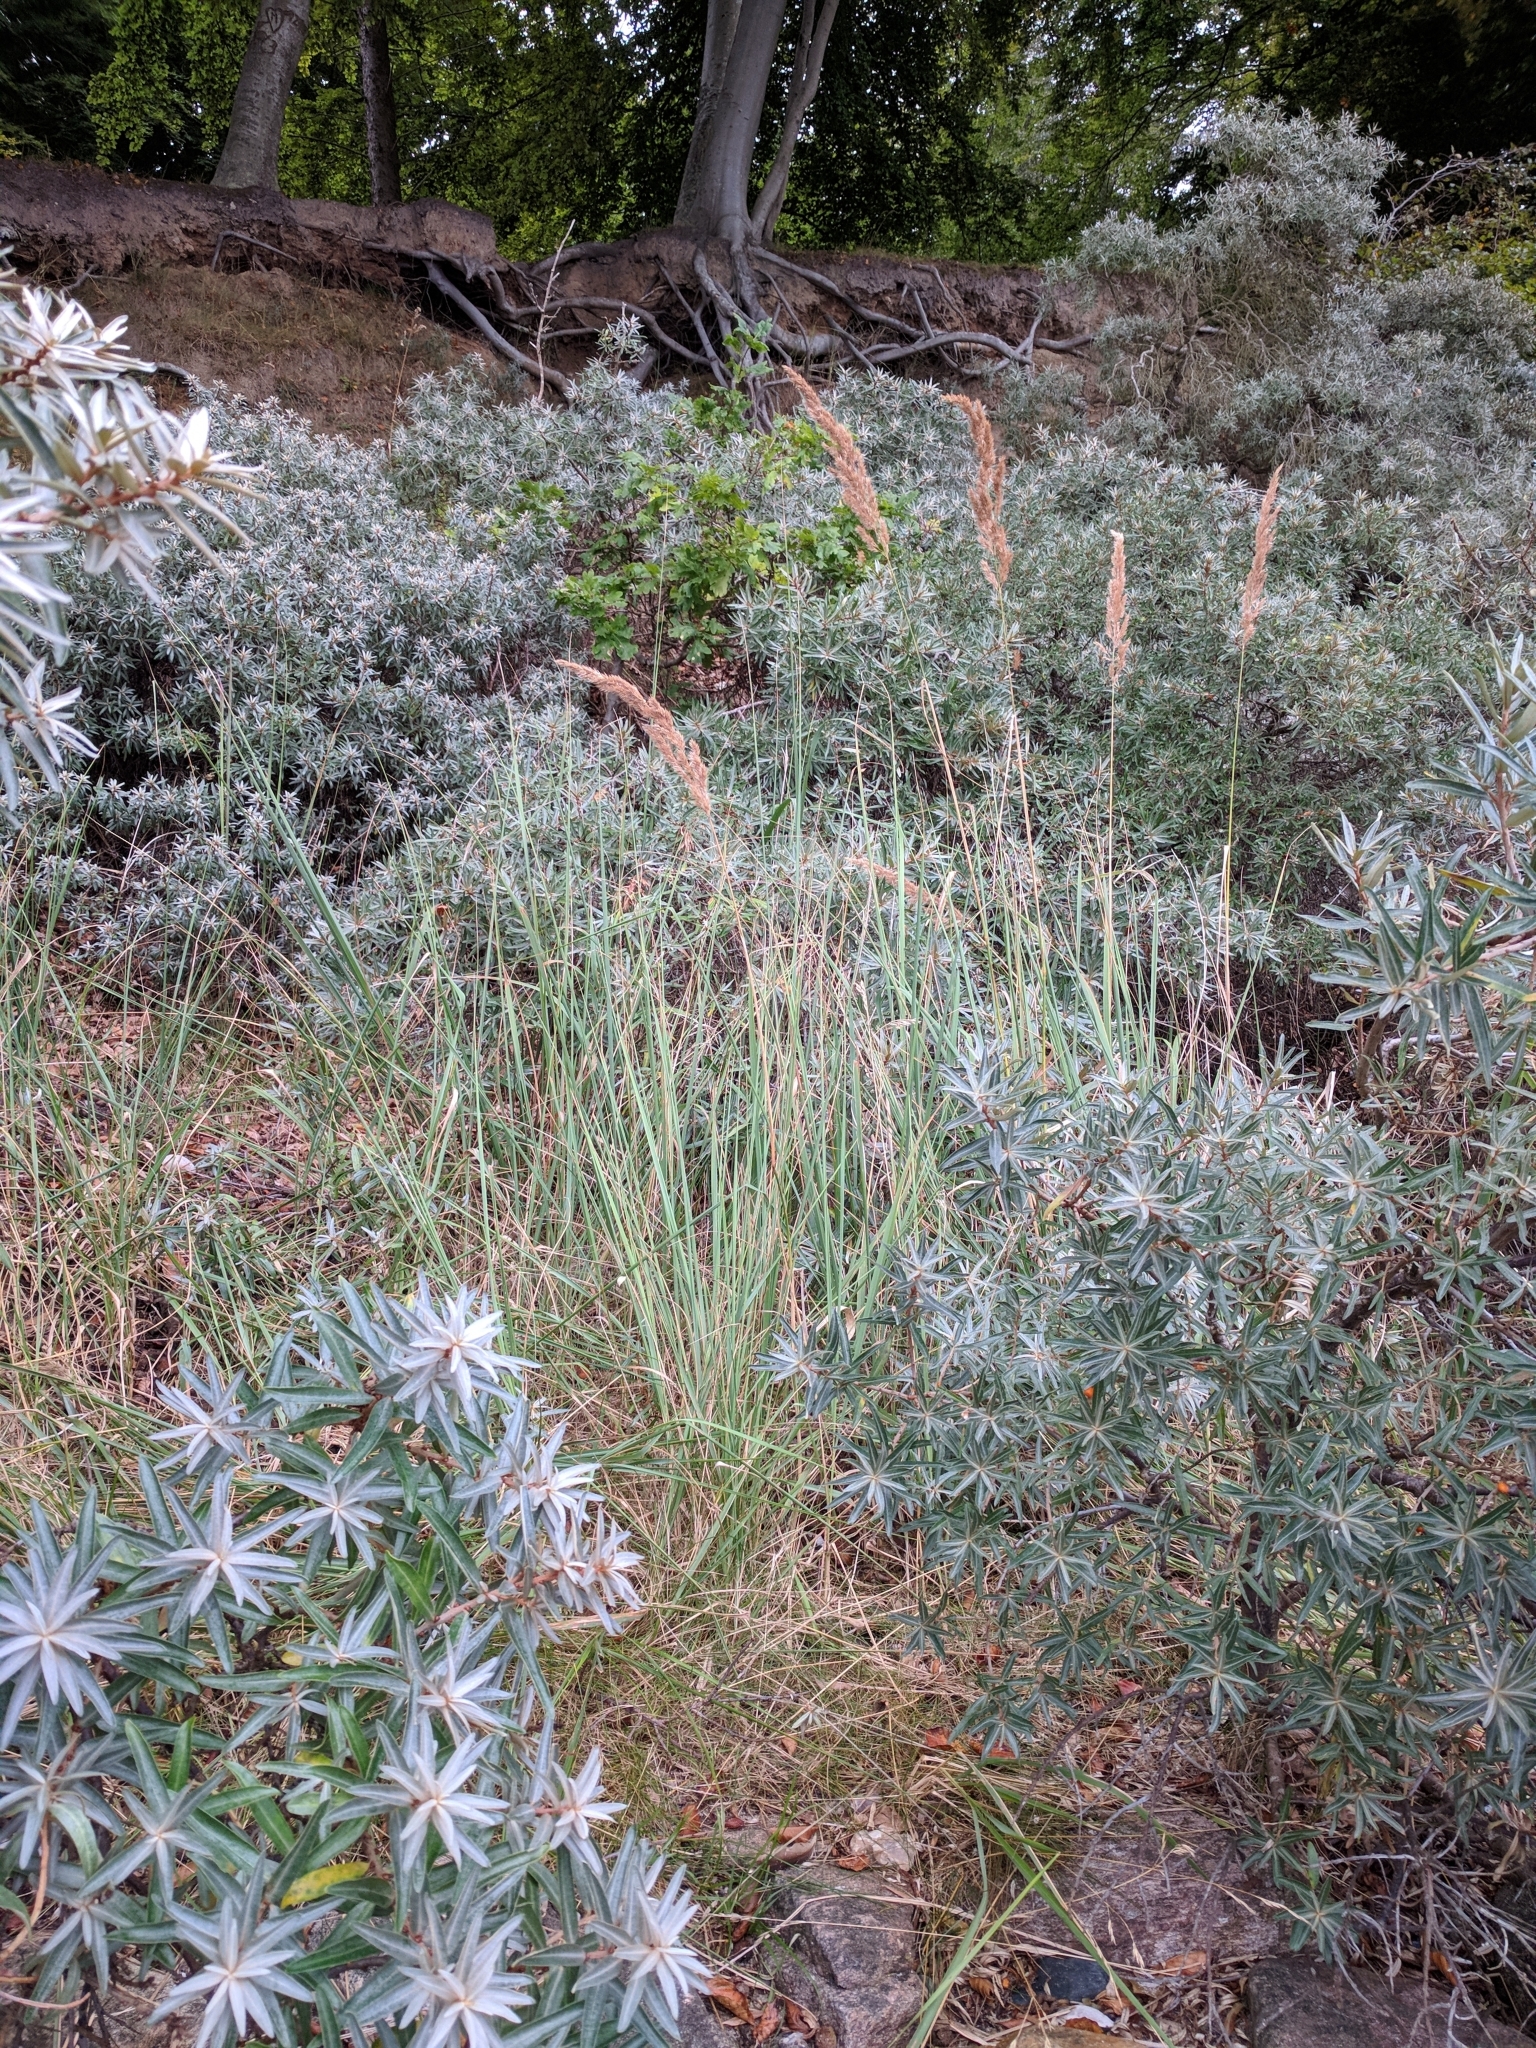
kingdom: Plantae
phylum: Tracheophyta
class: Liliopsida
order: Poales
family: Poaceae
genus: Calamagrostis
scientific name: Calamagrostis epigejos
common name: Wood small-reed
